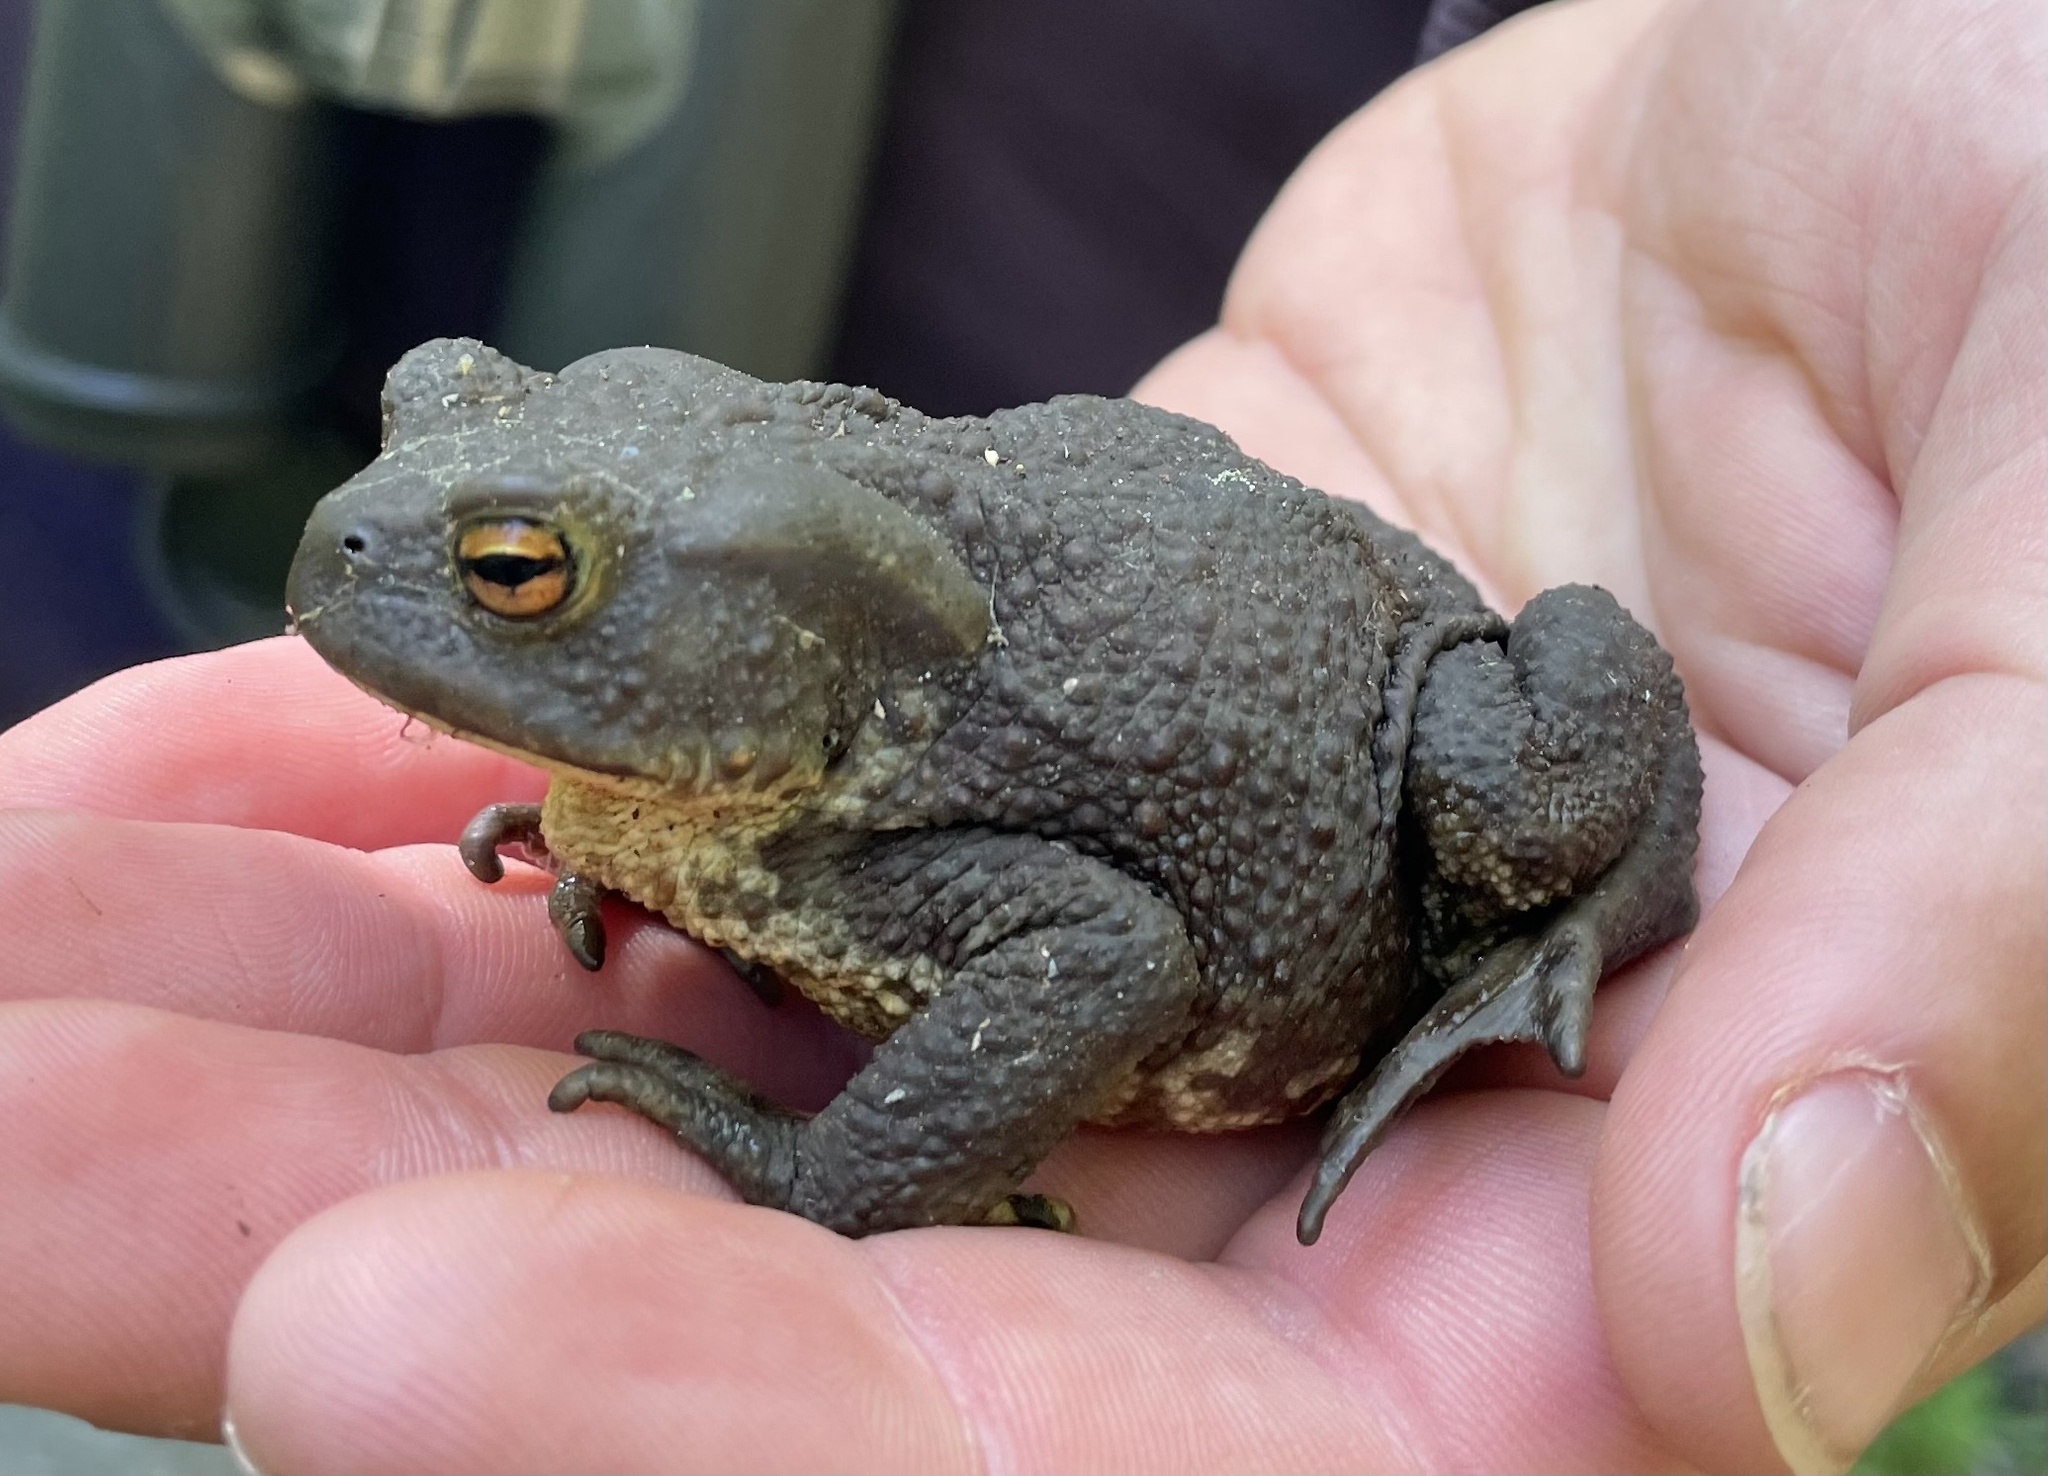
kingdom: Animalia
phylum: Chordata
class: Amphibia
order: Anura
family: Bufonidae
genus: Bufo
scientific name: Bufo bufo
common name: Common toad
